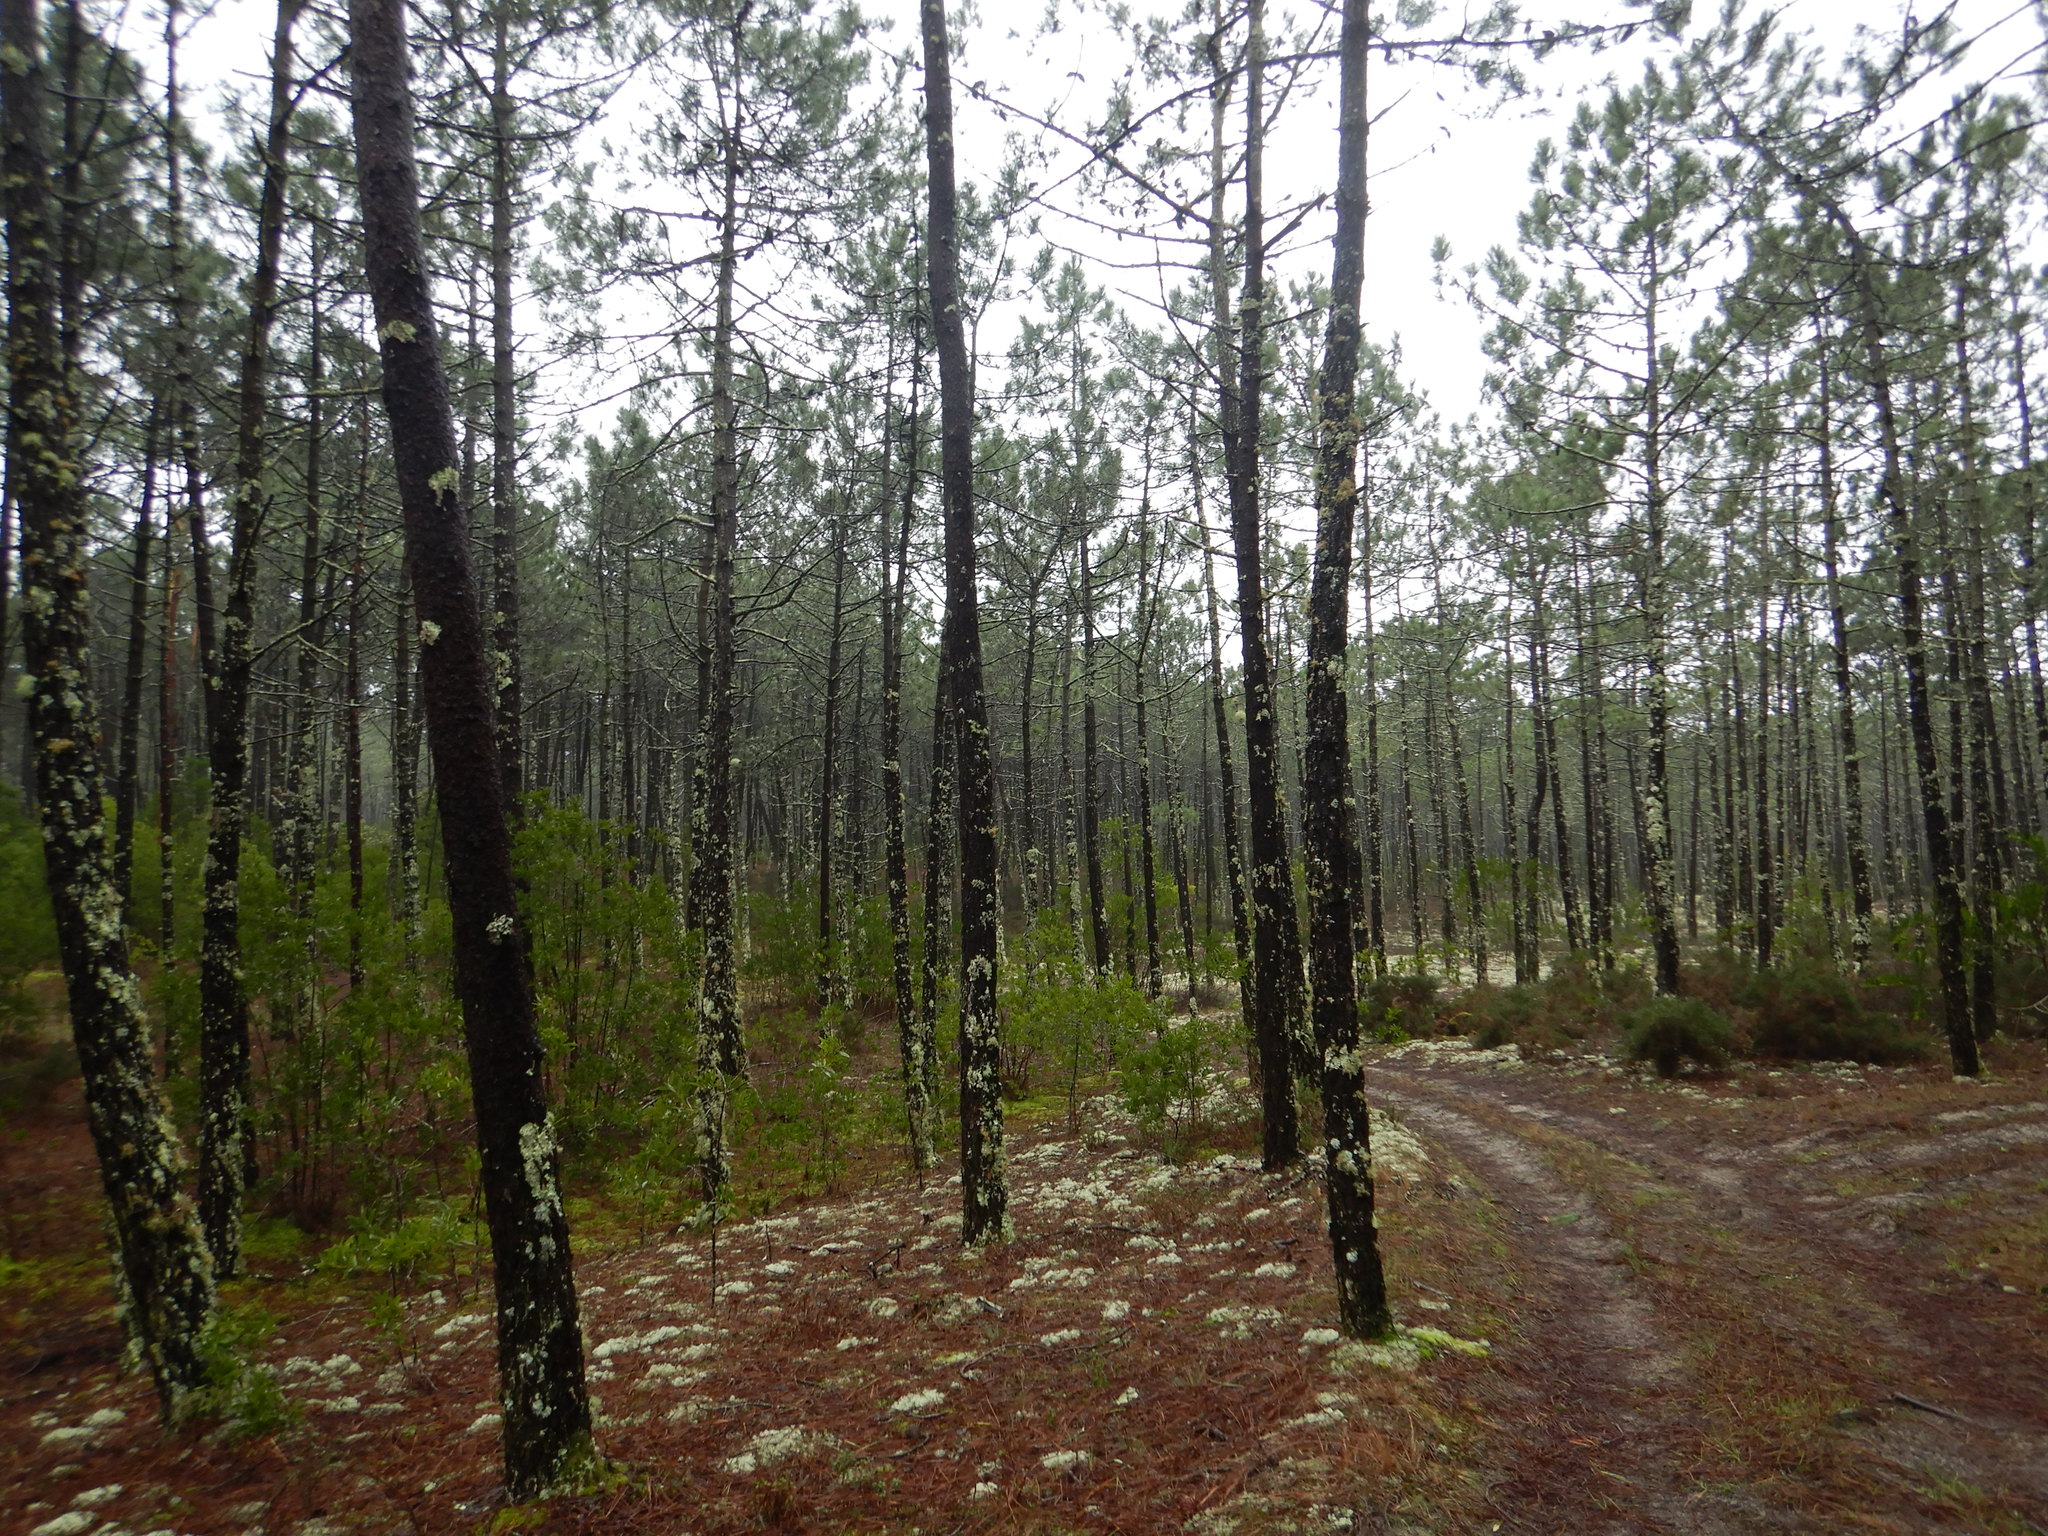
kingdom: Plantae
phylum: Tracheophyta
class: Pinopsida
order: Pinales
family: Pinaceae
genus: Pinus
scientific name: Pinus pinaster
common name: Maritime pine
